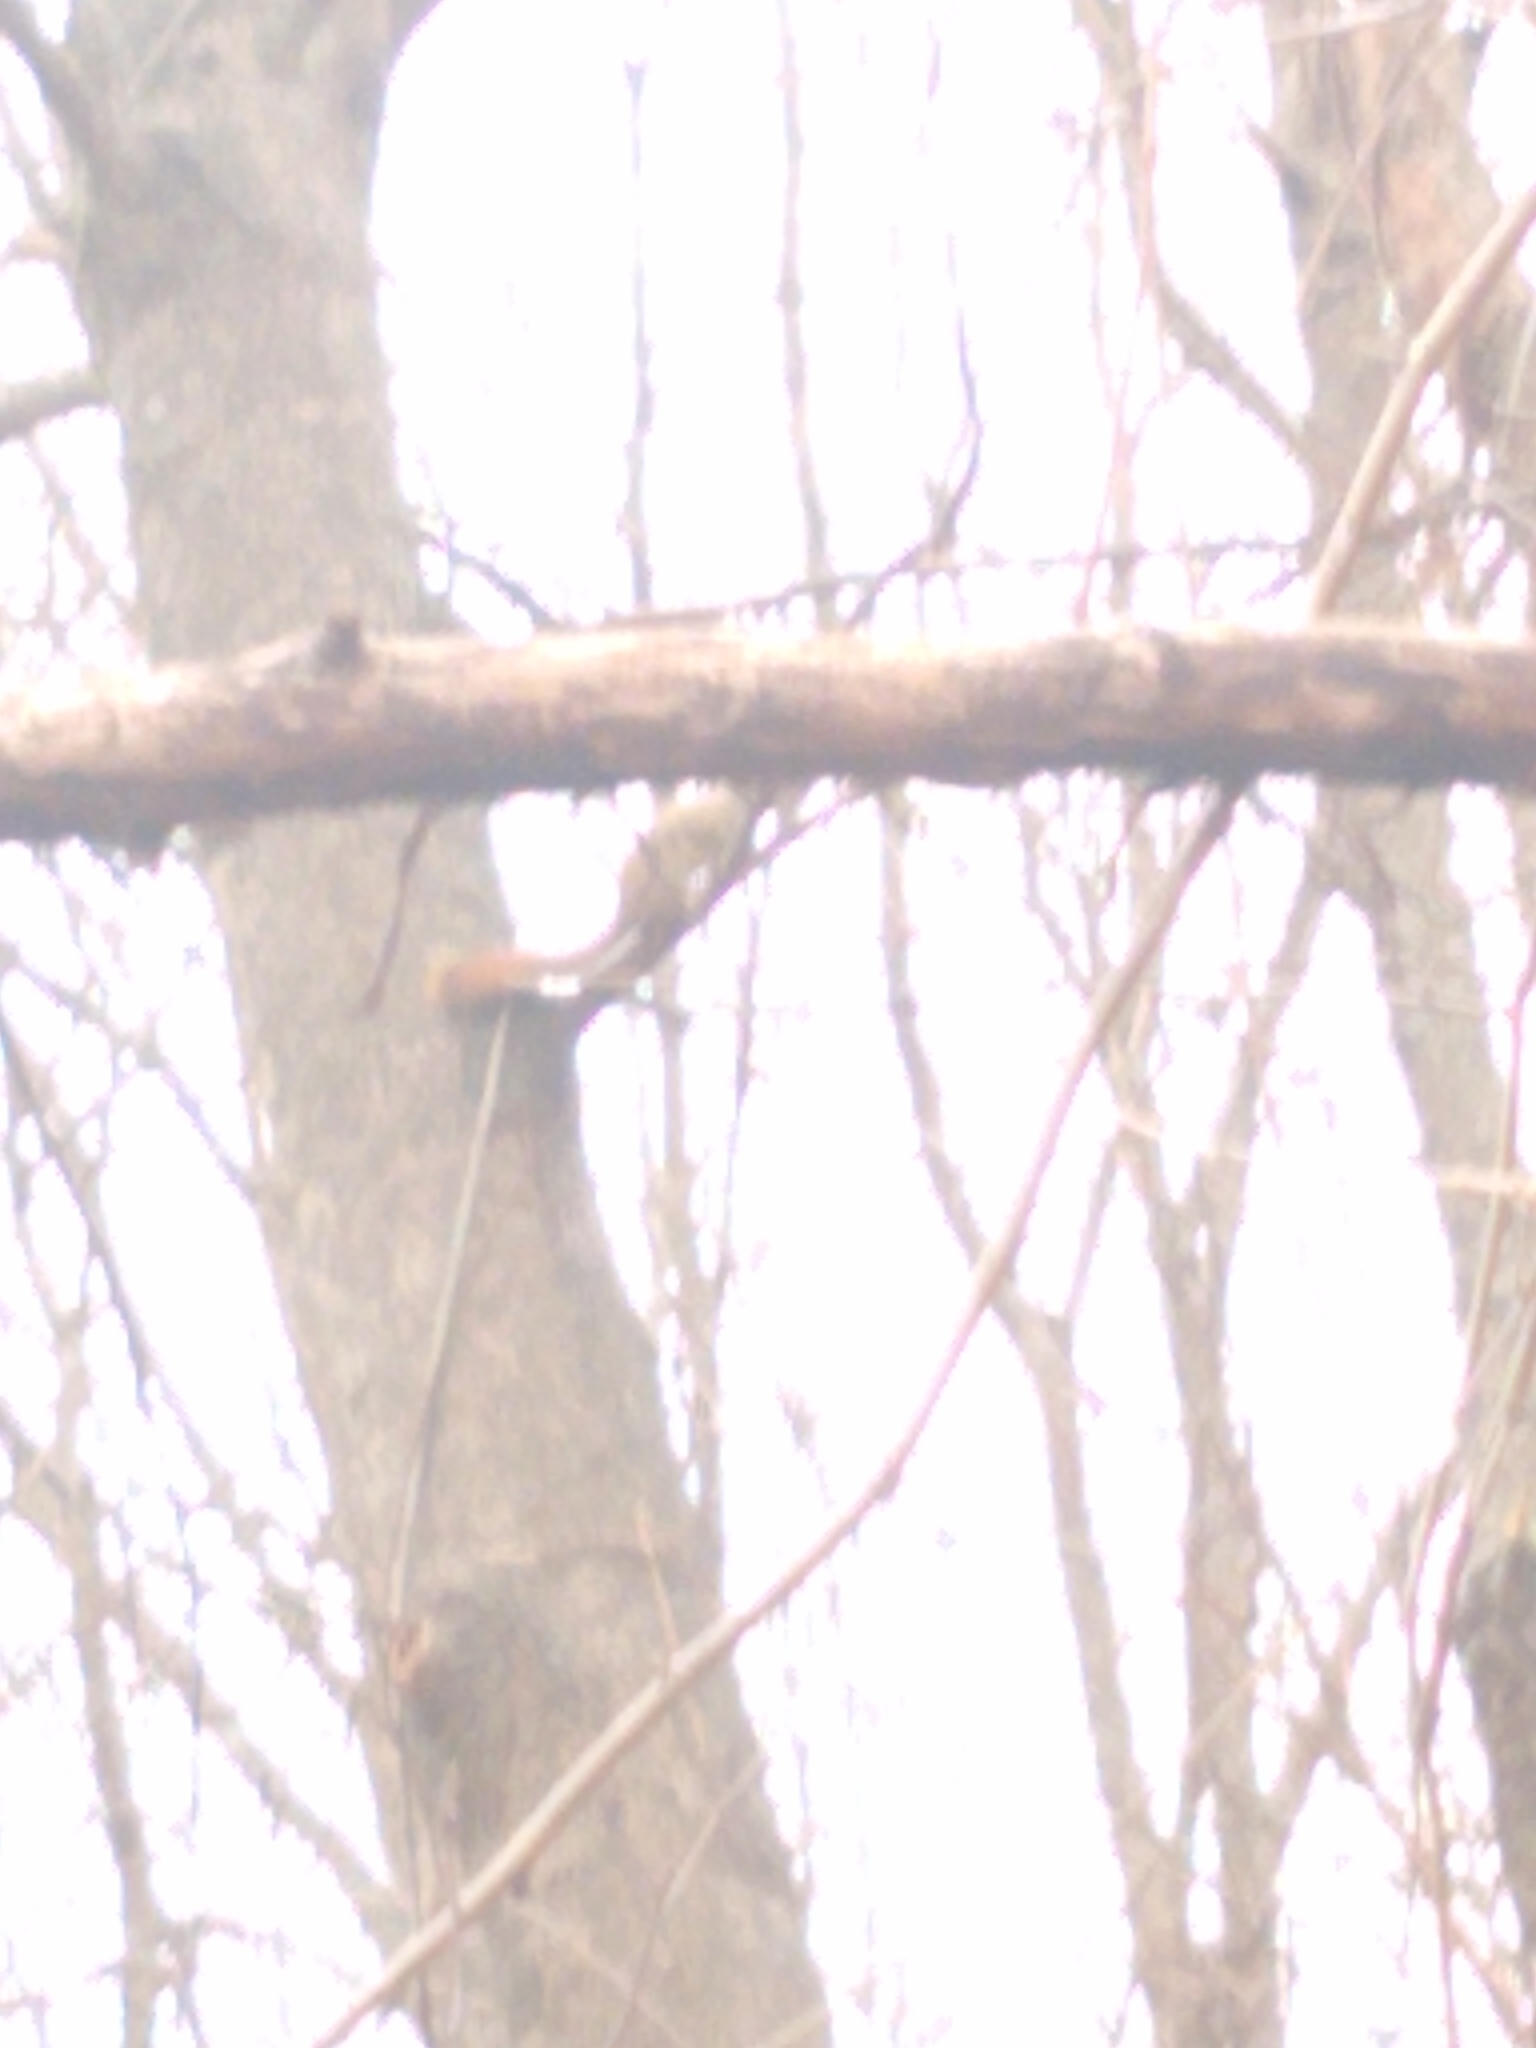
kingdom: Animalia
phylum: Chordata
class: Mammalia
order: Rodentia
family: Sciuridae
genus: Tamiasciurus
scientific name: Tamiasciurus hudsonicus
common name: Red squirrel
